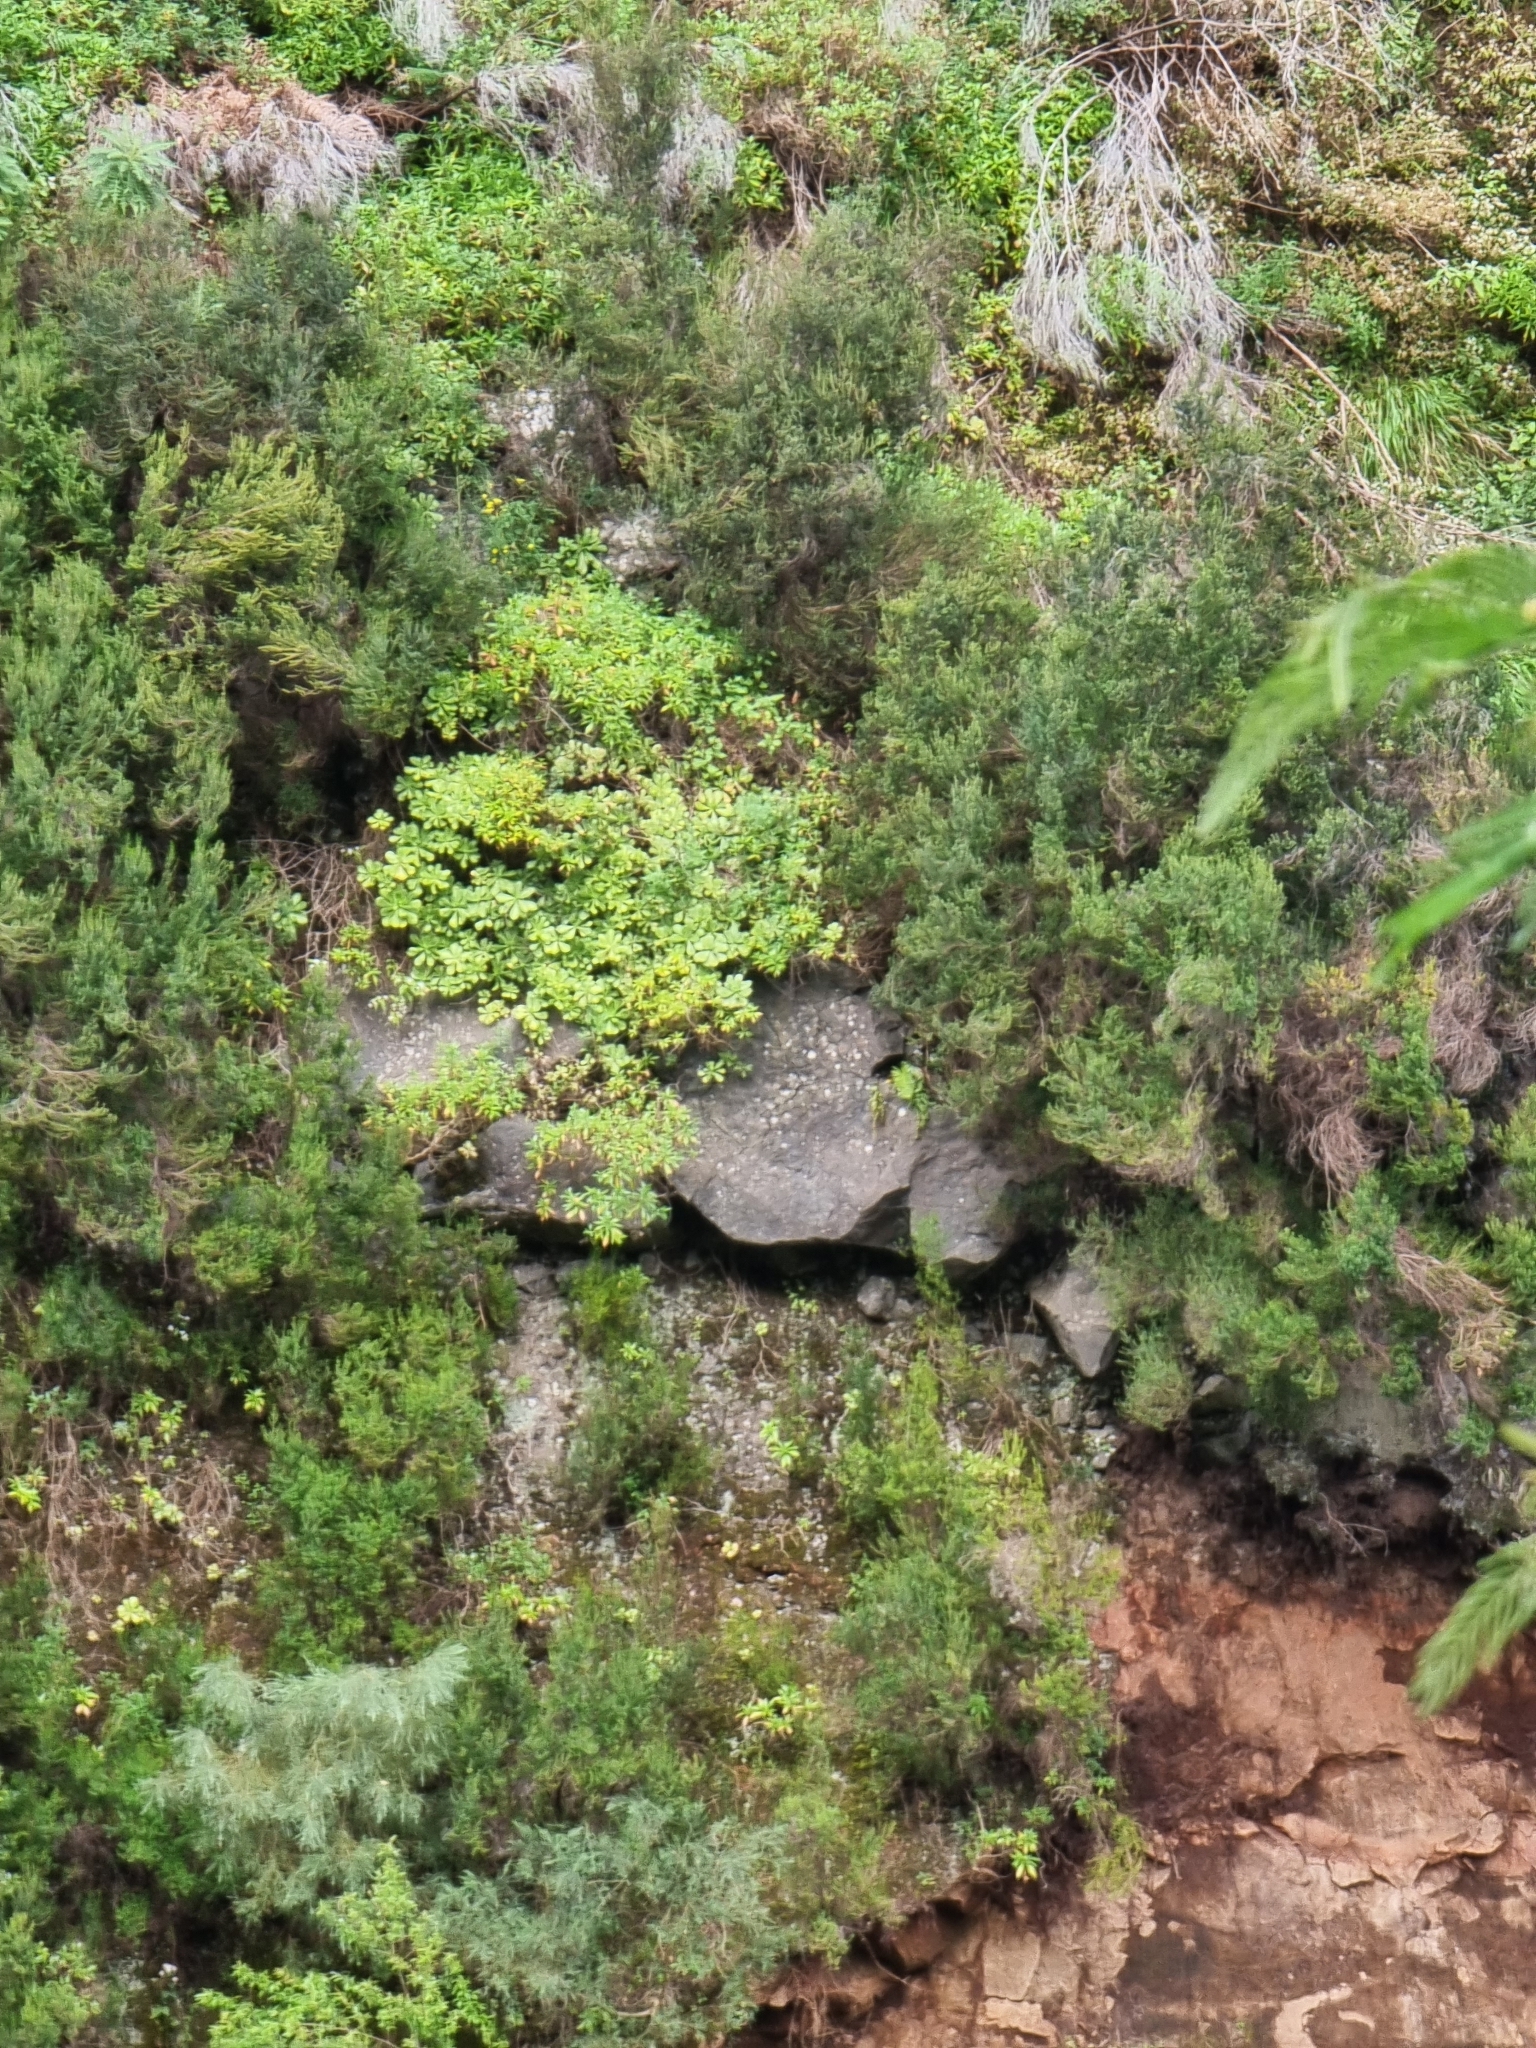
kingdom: Plantae
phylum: Tracheophyta
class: Magnoliopsida
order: Saxifragales
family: Crassulaceae
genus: Aeonium
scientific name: Aeonium glutinosum
